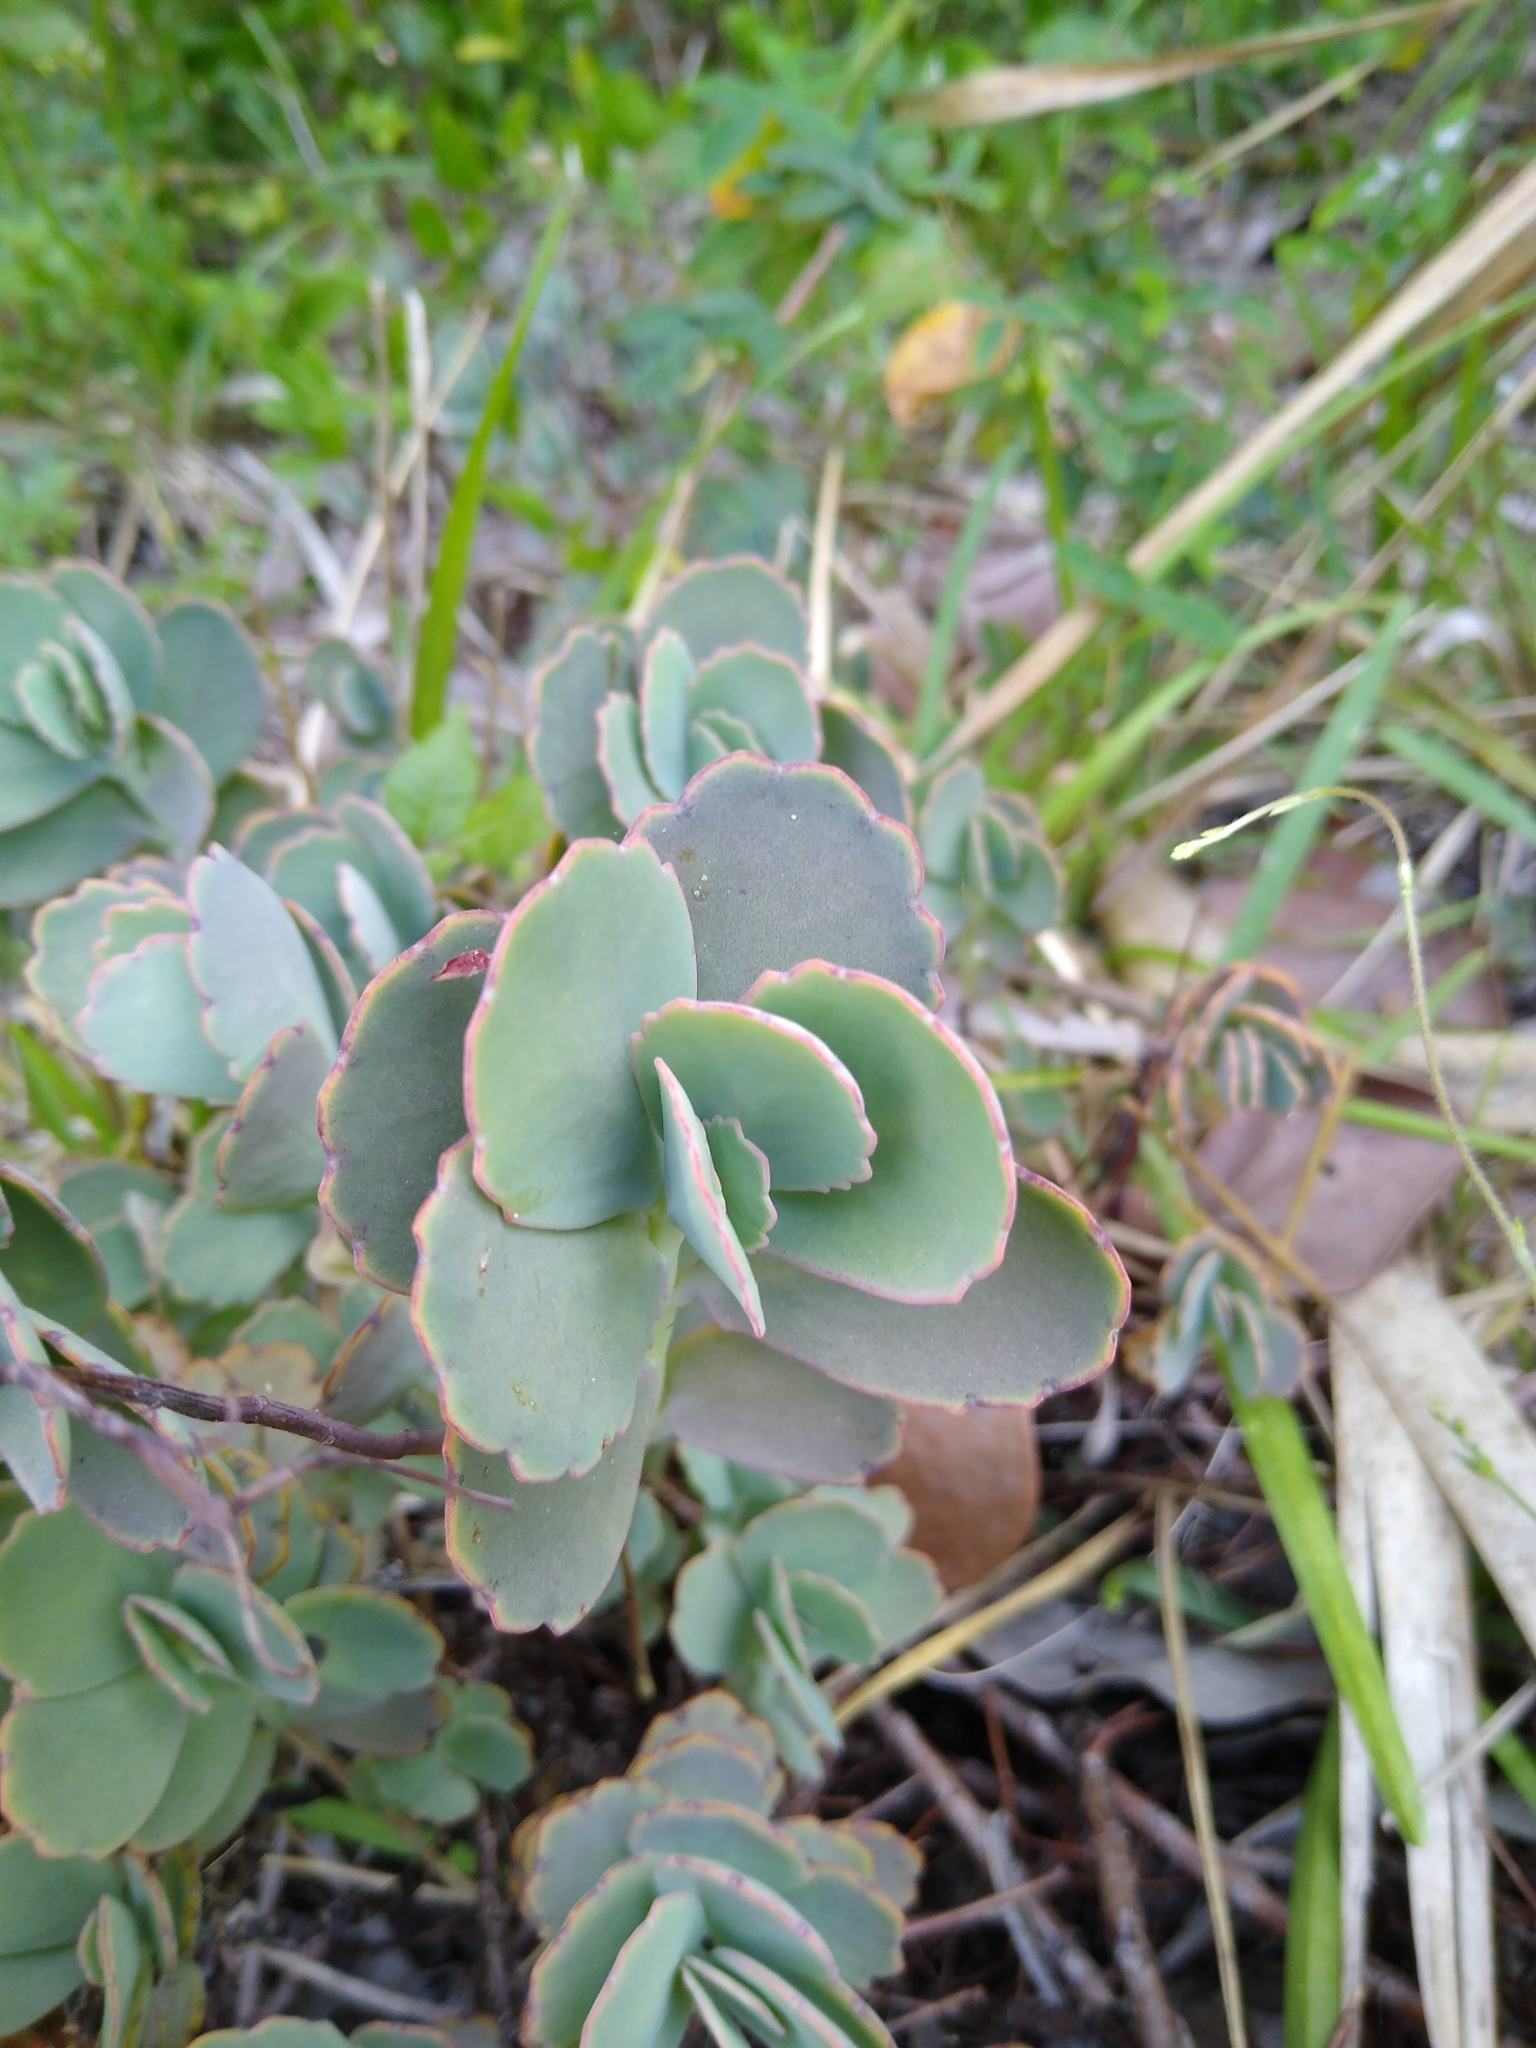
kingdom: Plantae
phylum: Tracheophyta
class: Magnoliopsida
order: Saxifragales
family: Crassulaceae
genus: Kalanchoe
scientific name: Kalanchoe fedtschenkoi
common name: Lavender scallops
